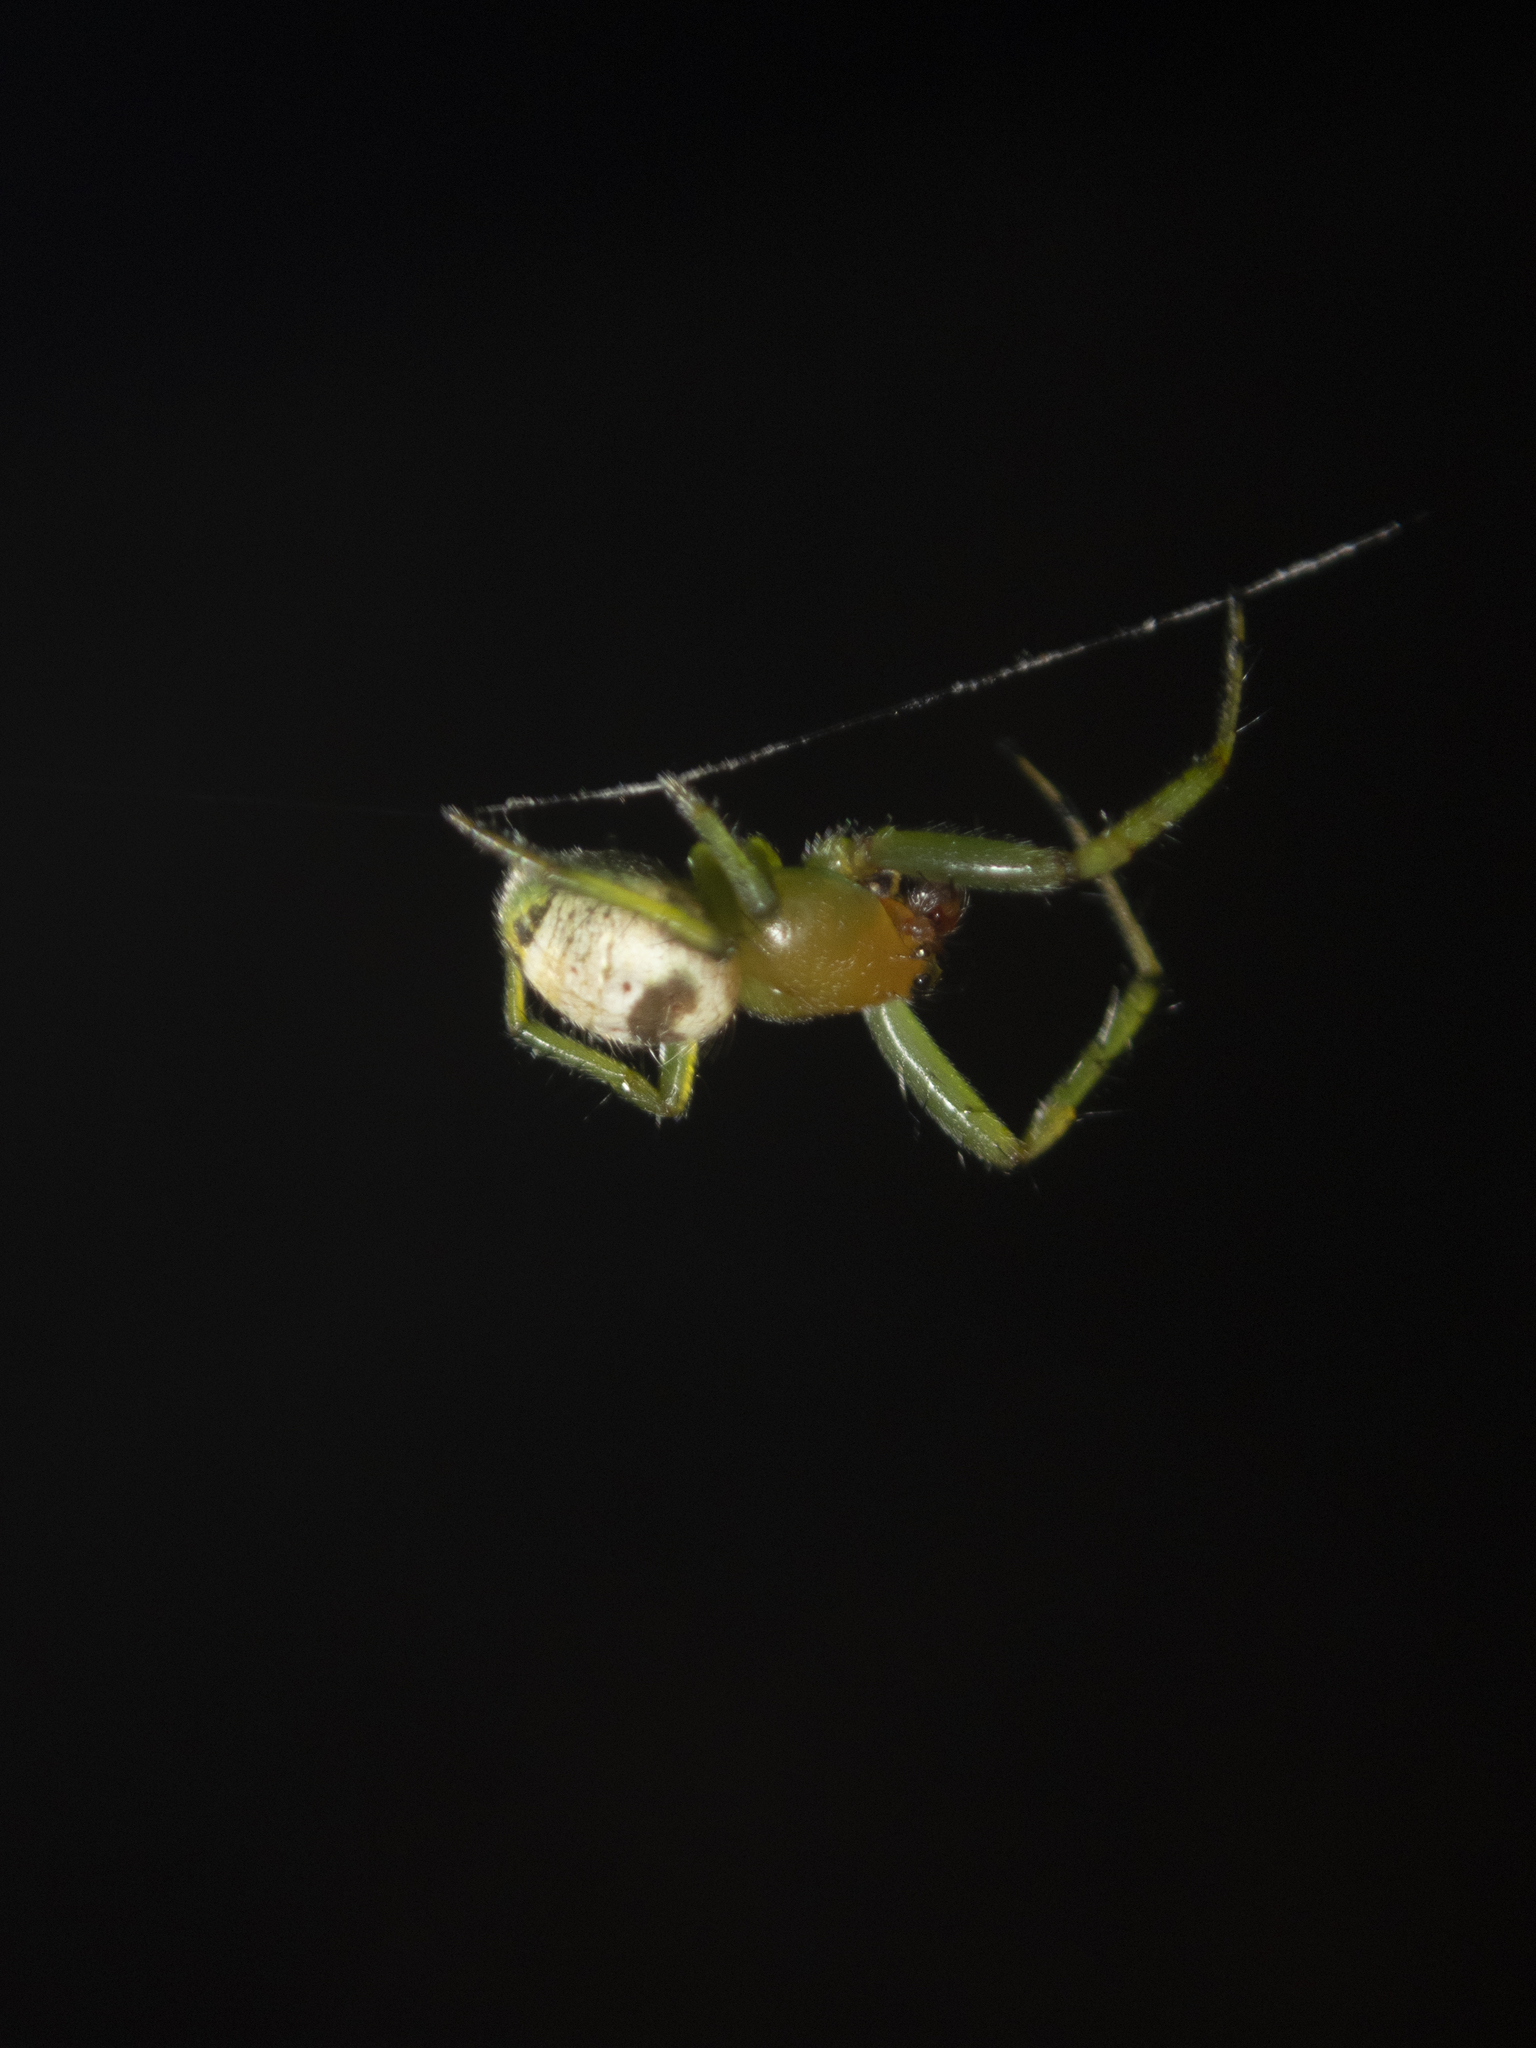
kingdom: Animalia
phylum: Arthropoda
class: Arachnida
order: Araneae
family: Araneidae
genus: Bijoaraneus
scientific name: Bijoaraneus mitificus
